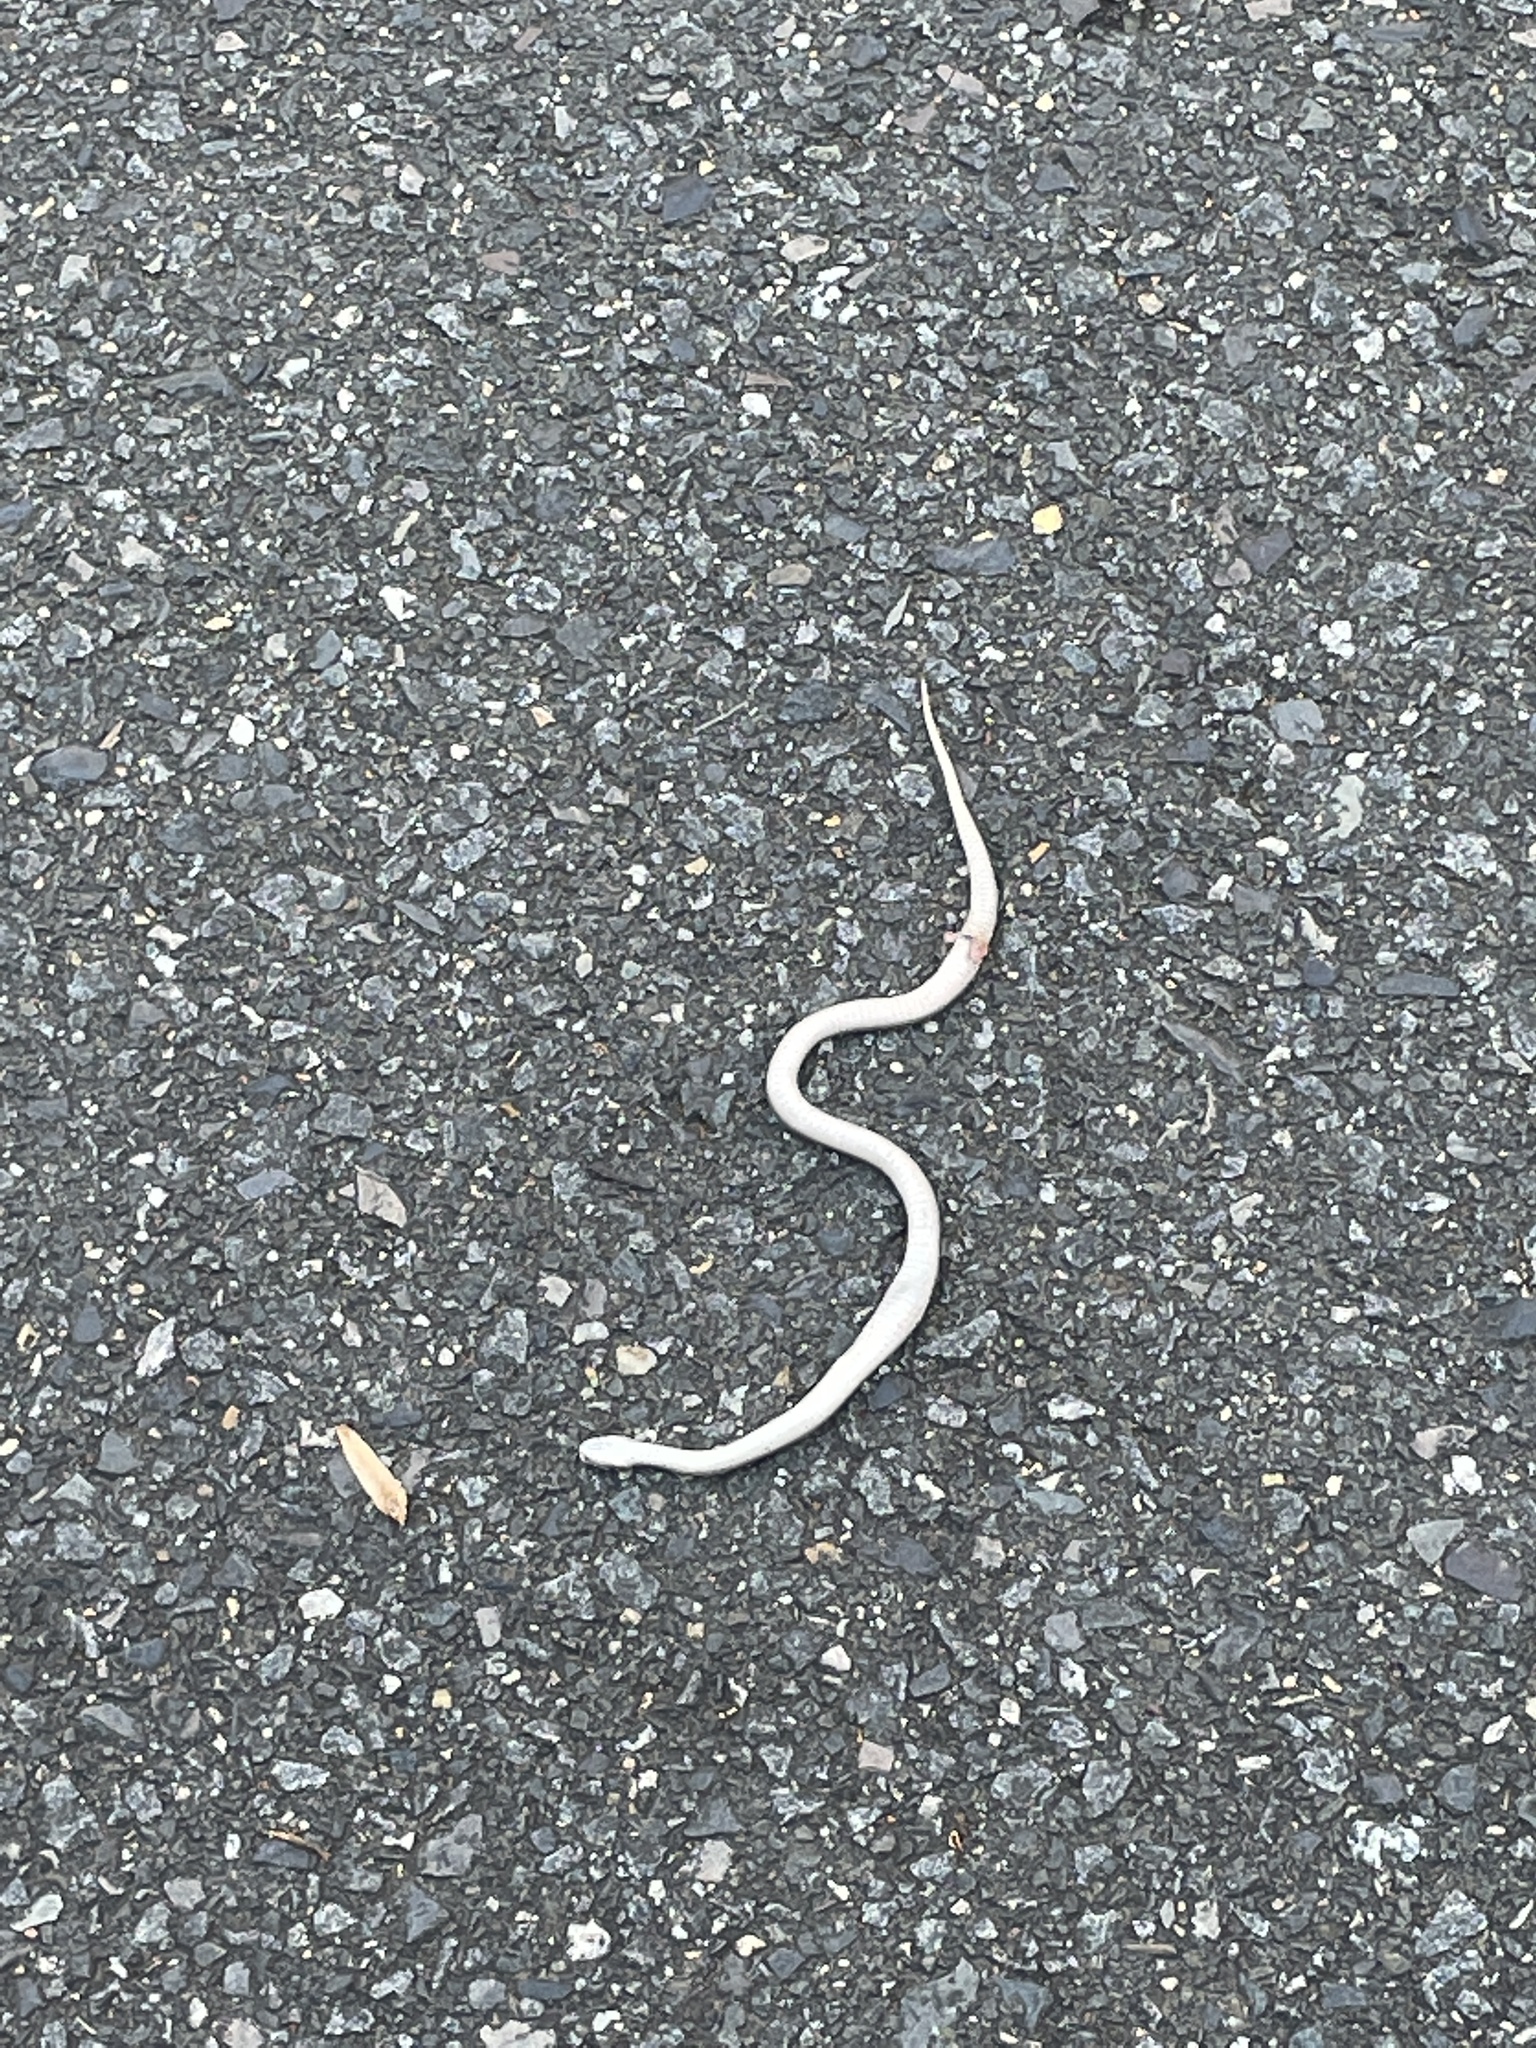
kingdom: Animalia
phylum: Chordata
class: Squamata
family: Colubridae
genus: Storeria
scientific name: Storeria dekayi
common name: (dekay’s) brown snake
